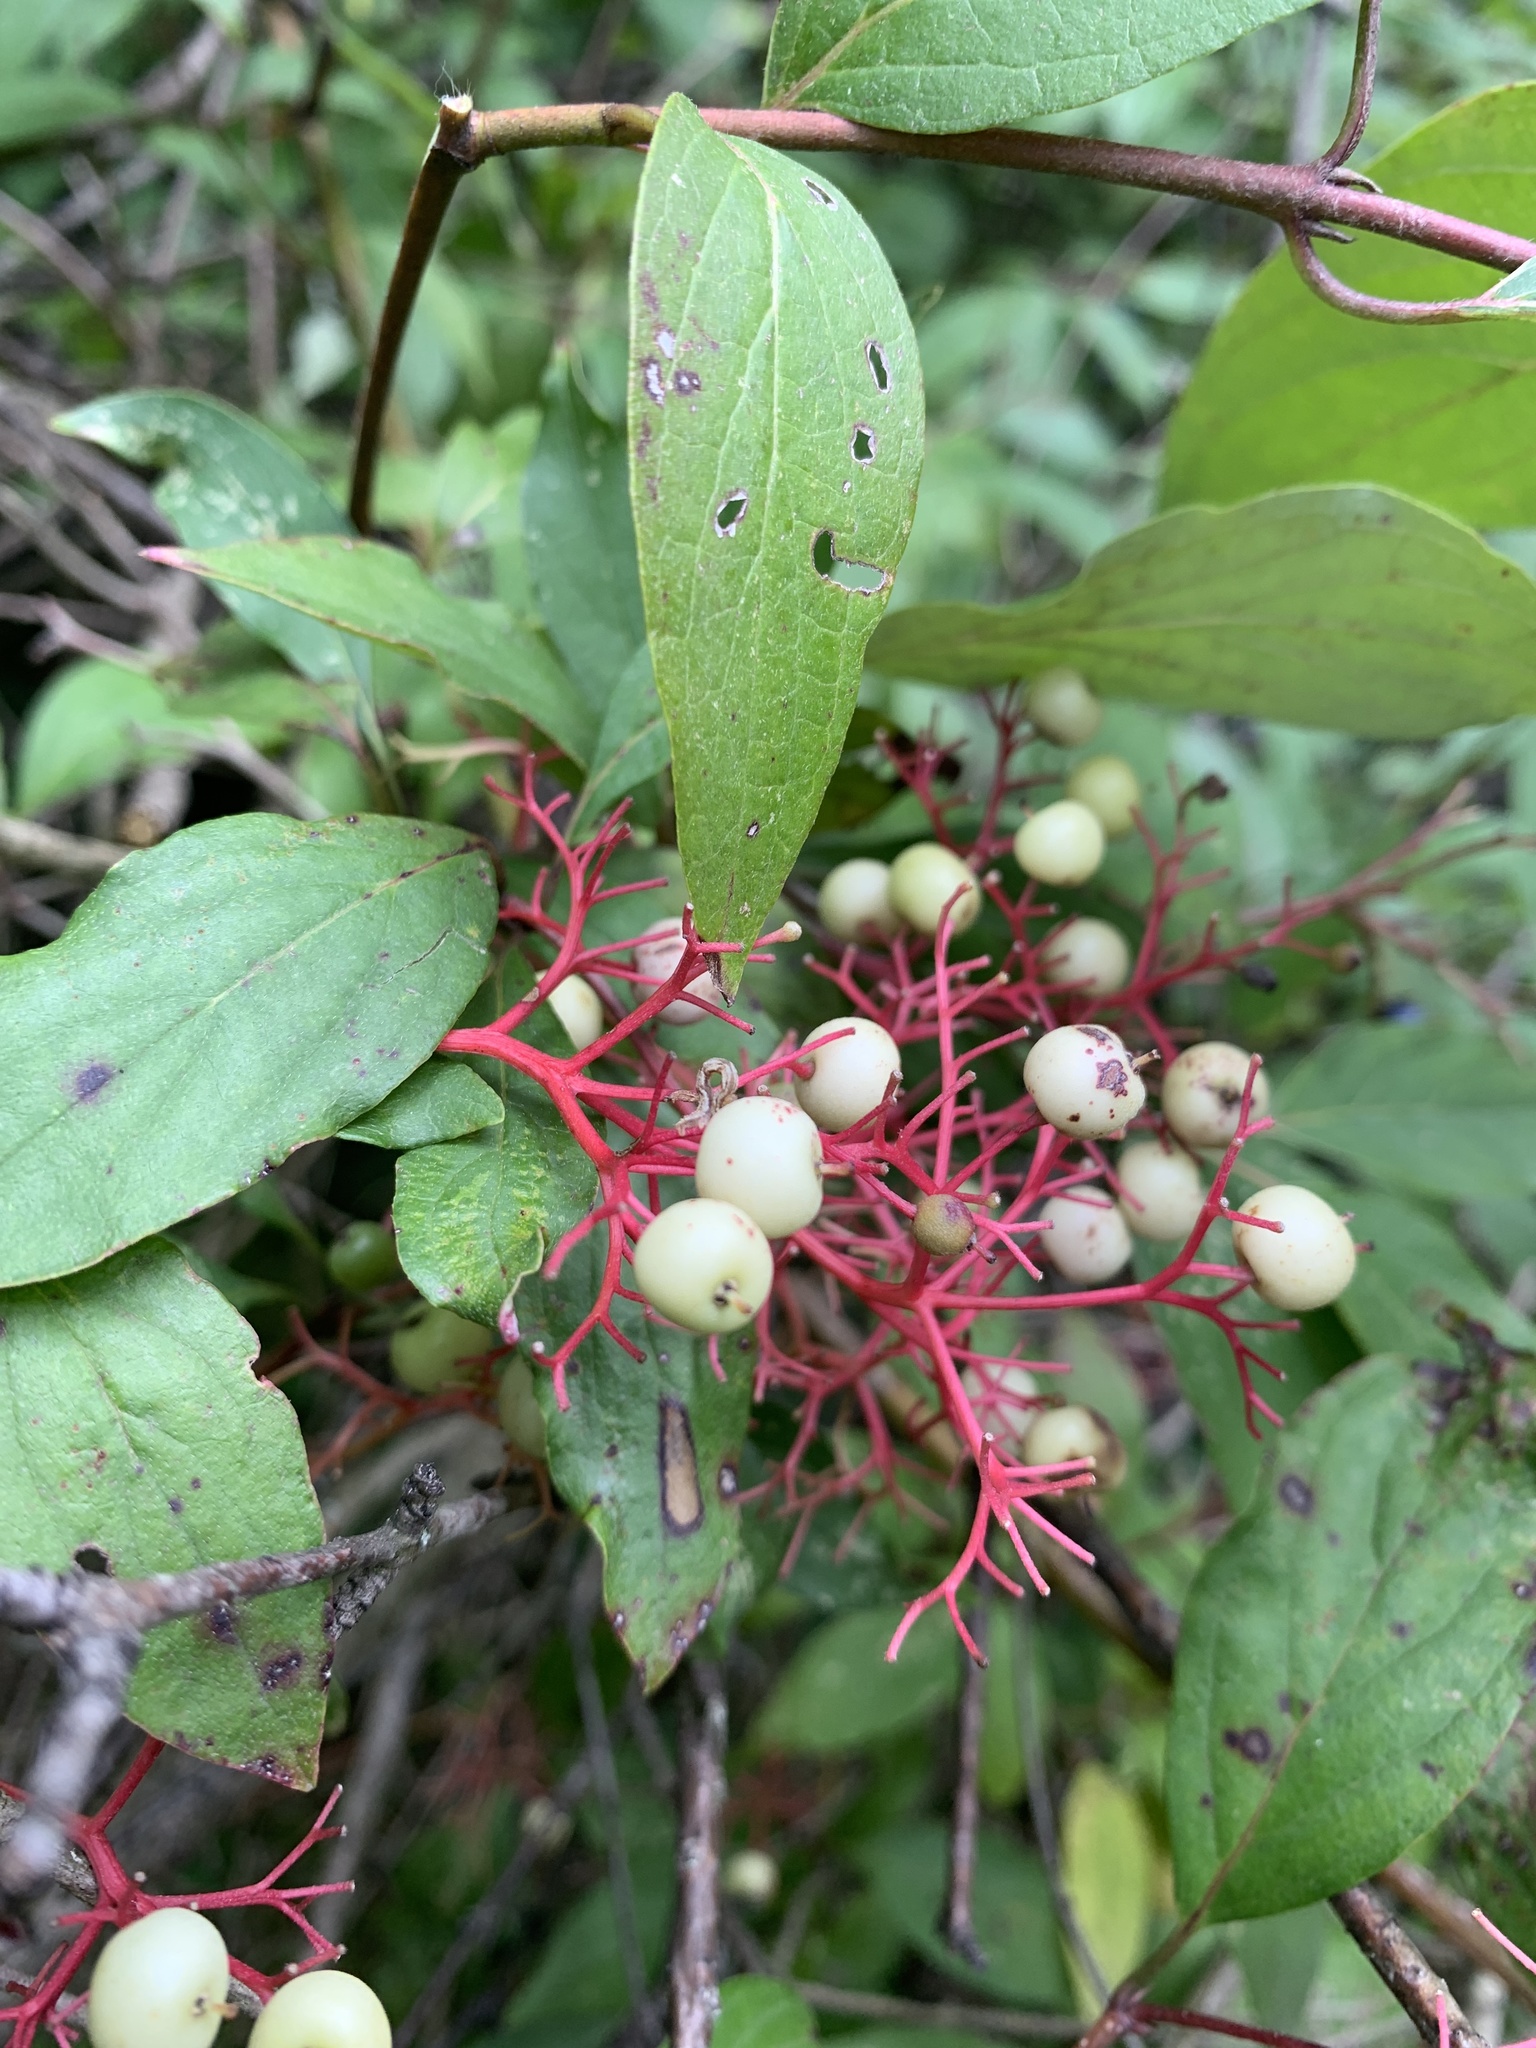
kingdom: Plantae
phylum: Tracheophyta
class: Magnoliopsida
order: Cornales
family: Cornaceae
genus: Cornus
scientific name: Cornus racemosa
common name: Panicled dogwood
